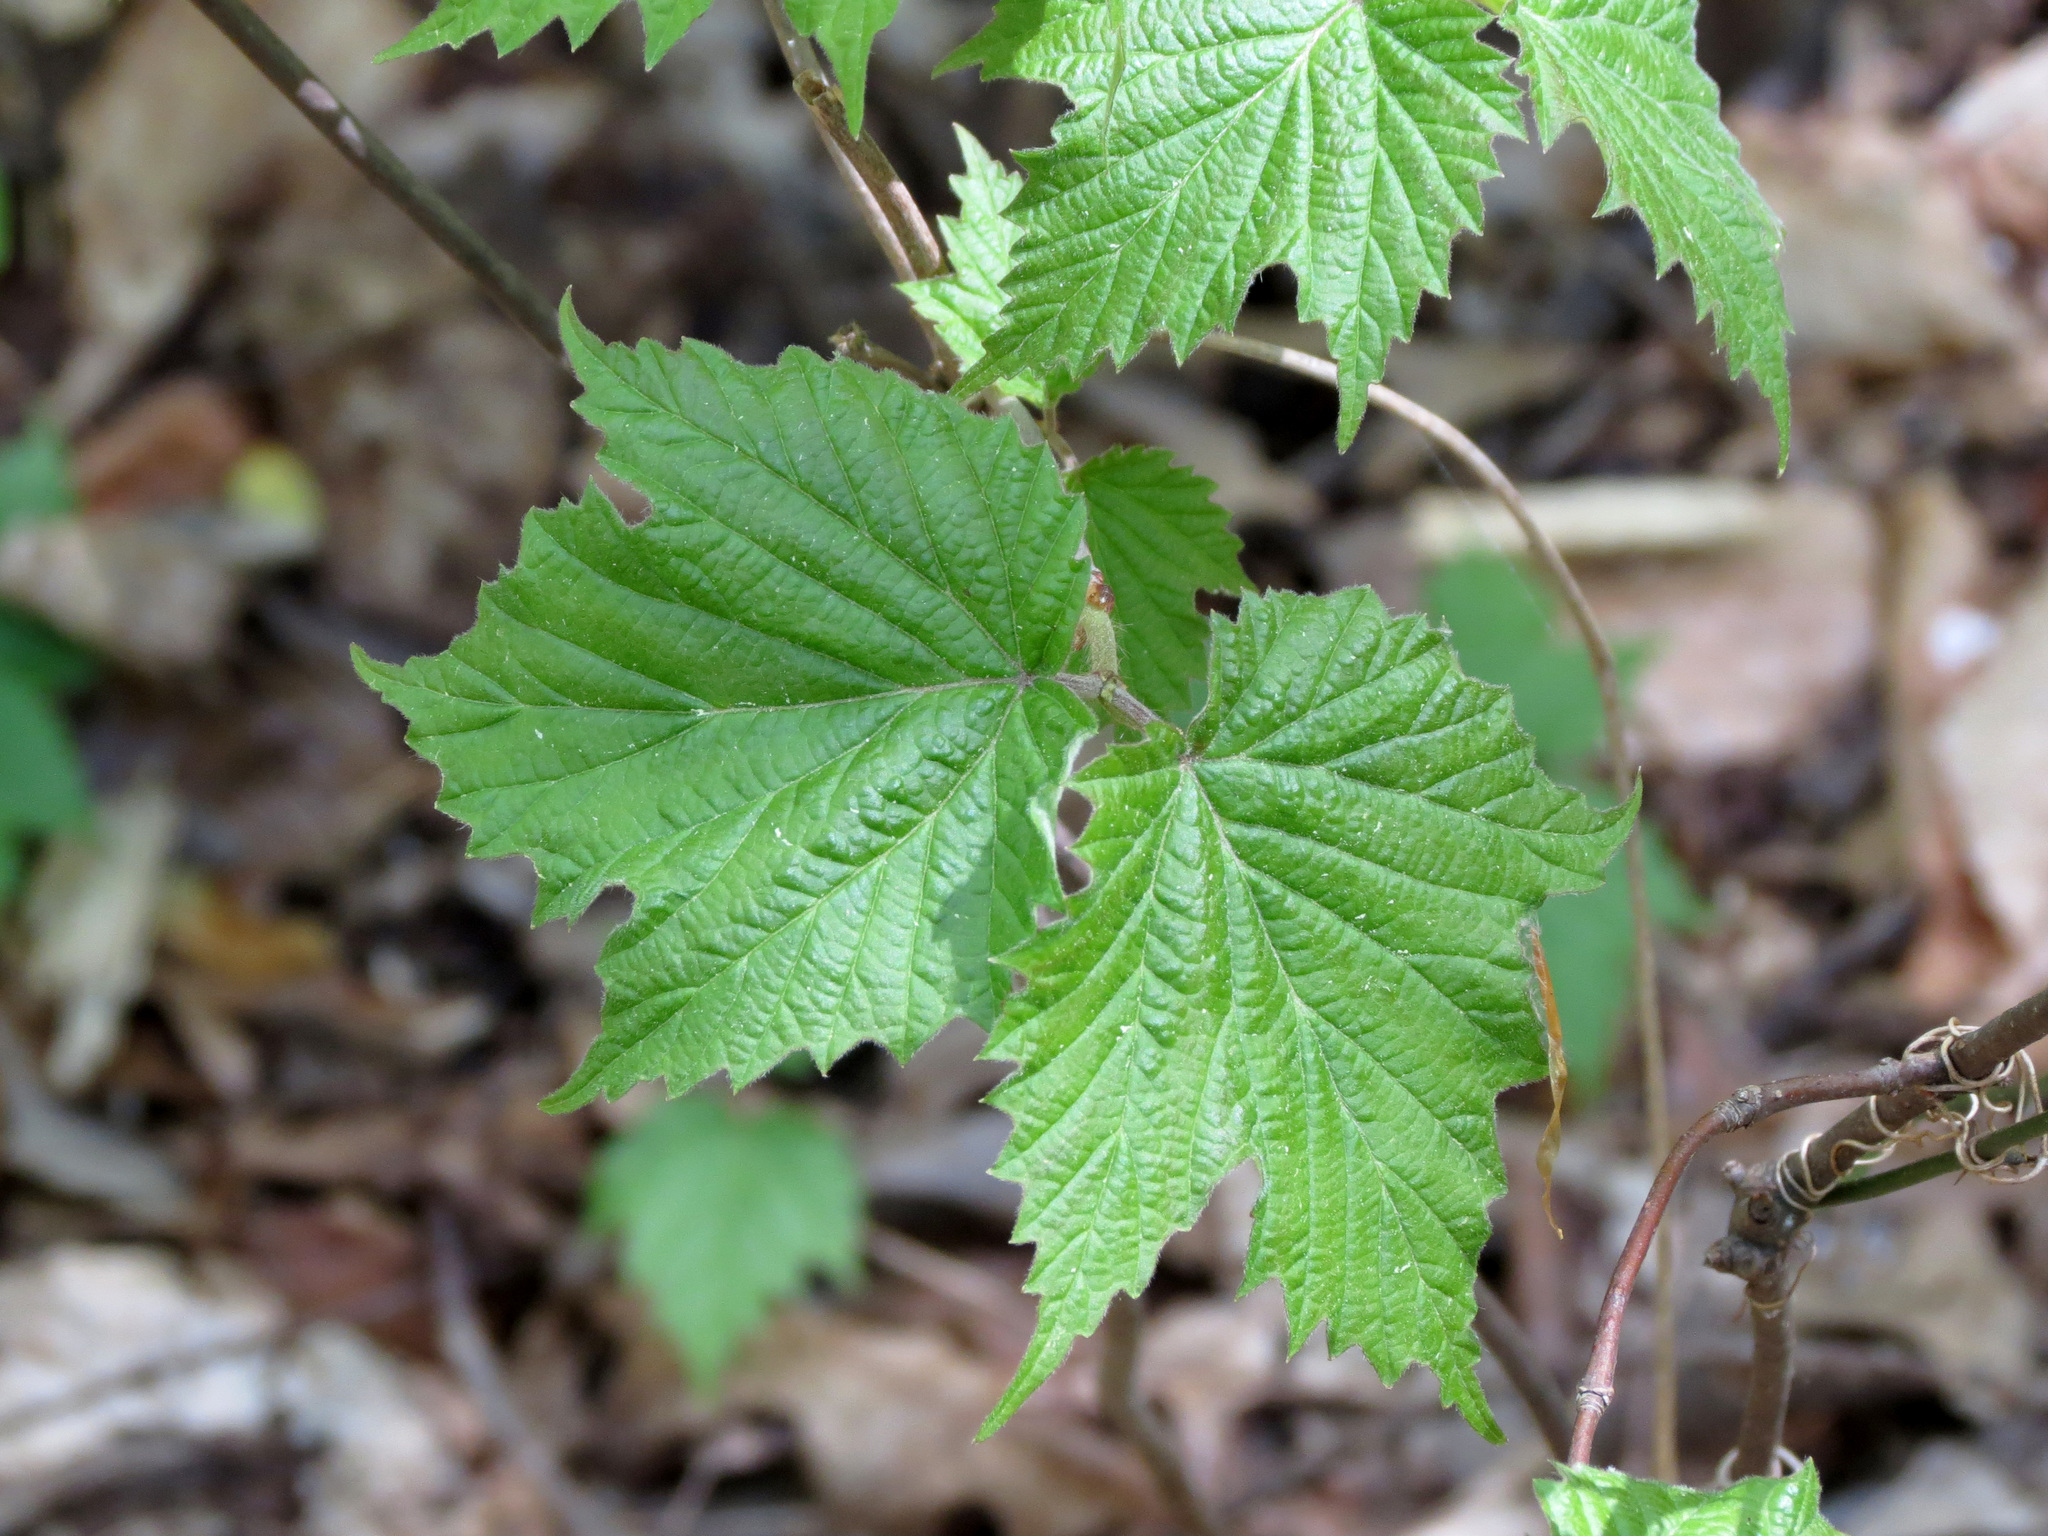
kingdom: Plantae
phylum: Tracheophyta
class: Magnoliopsida
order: Dipsacales
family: Viburnaceae
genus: Viburnum
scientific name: Viburnum acerifolium
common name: Dockmackie
